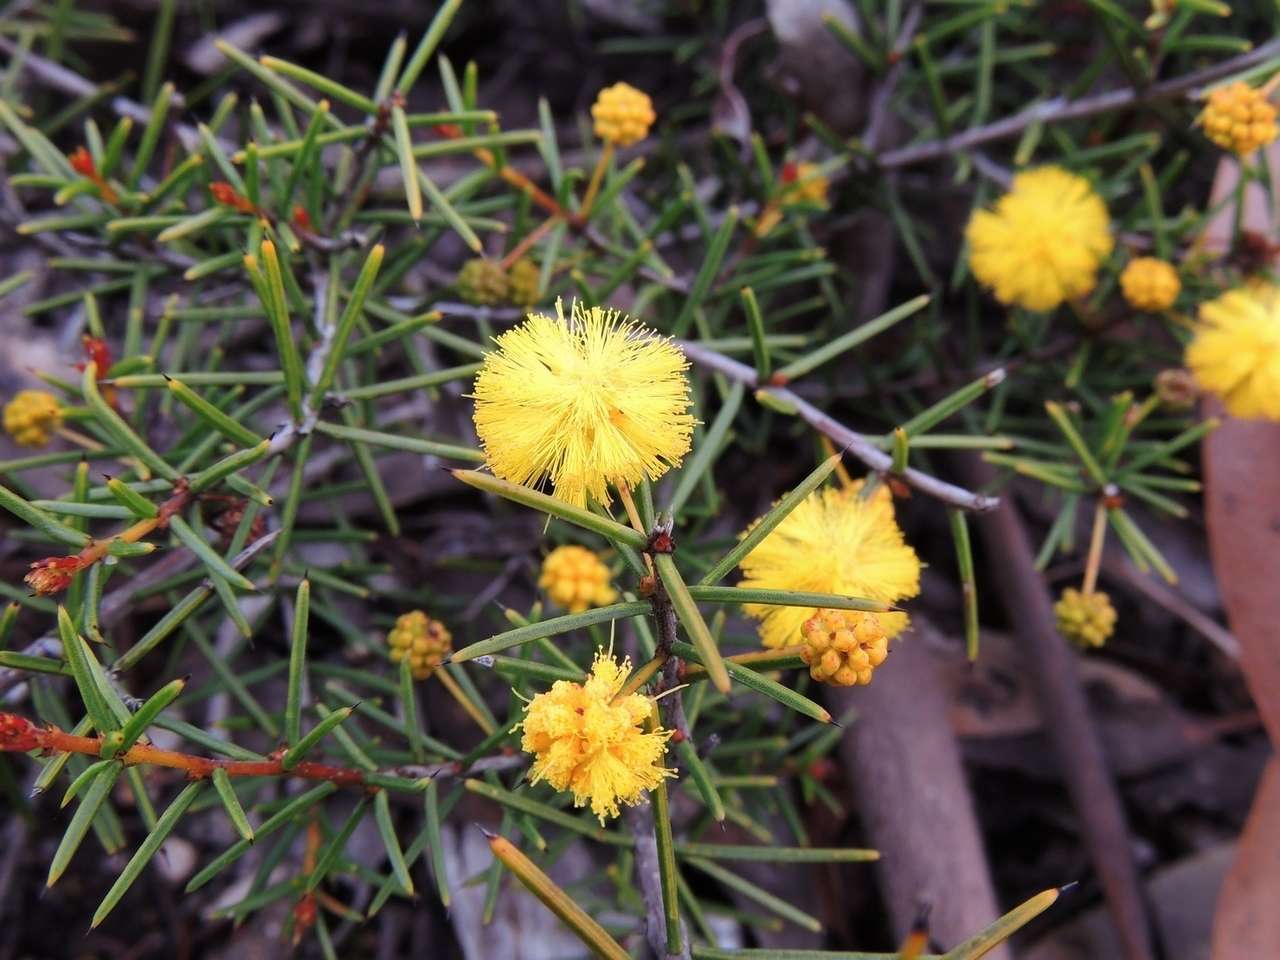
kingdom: Plantae
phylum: Tracheophyta
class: Magnoliopsida
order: Fabales
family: Fabaceae
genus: Acacia
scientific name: Acacia brownii
